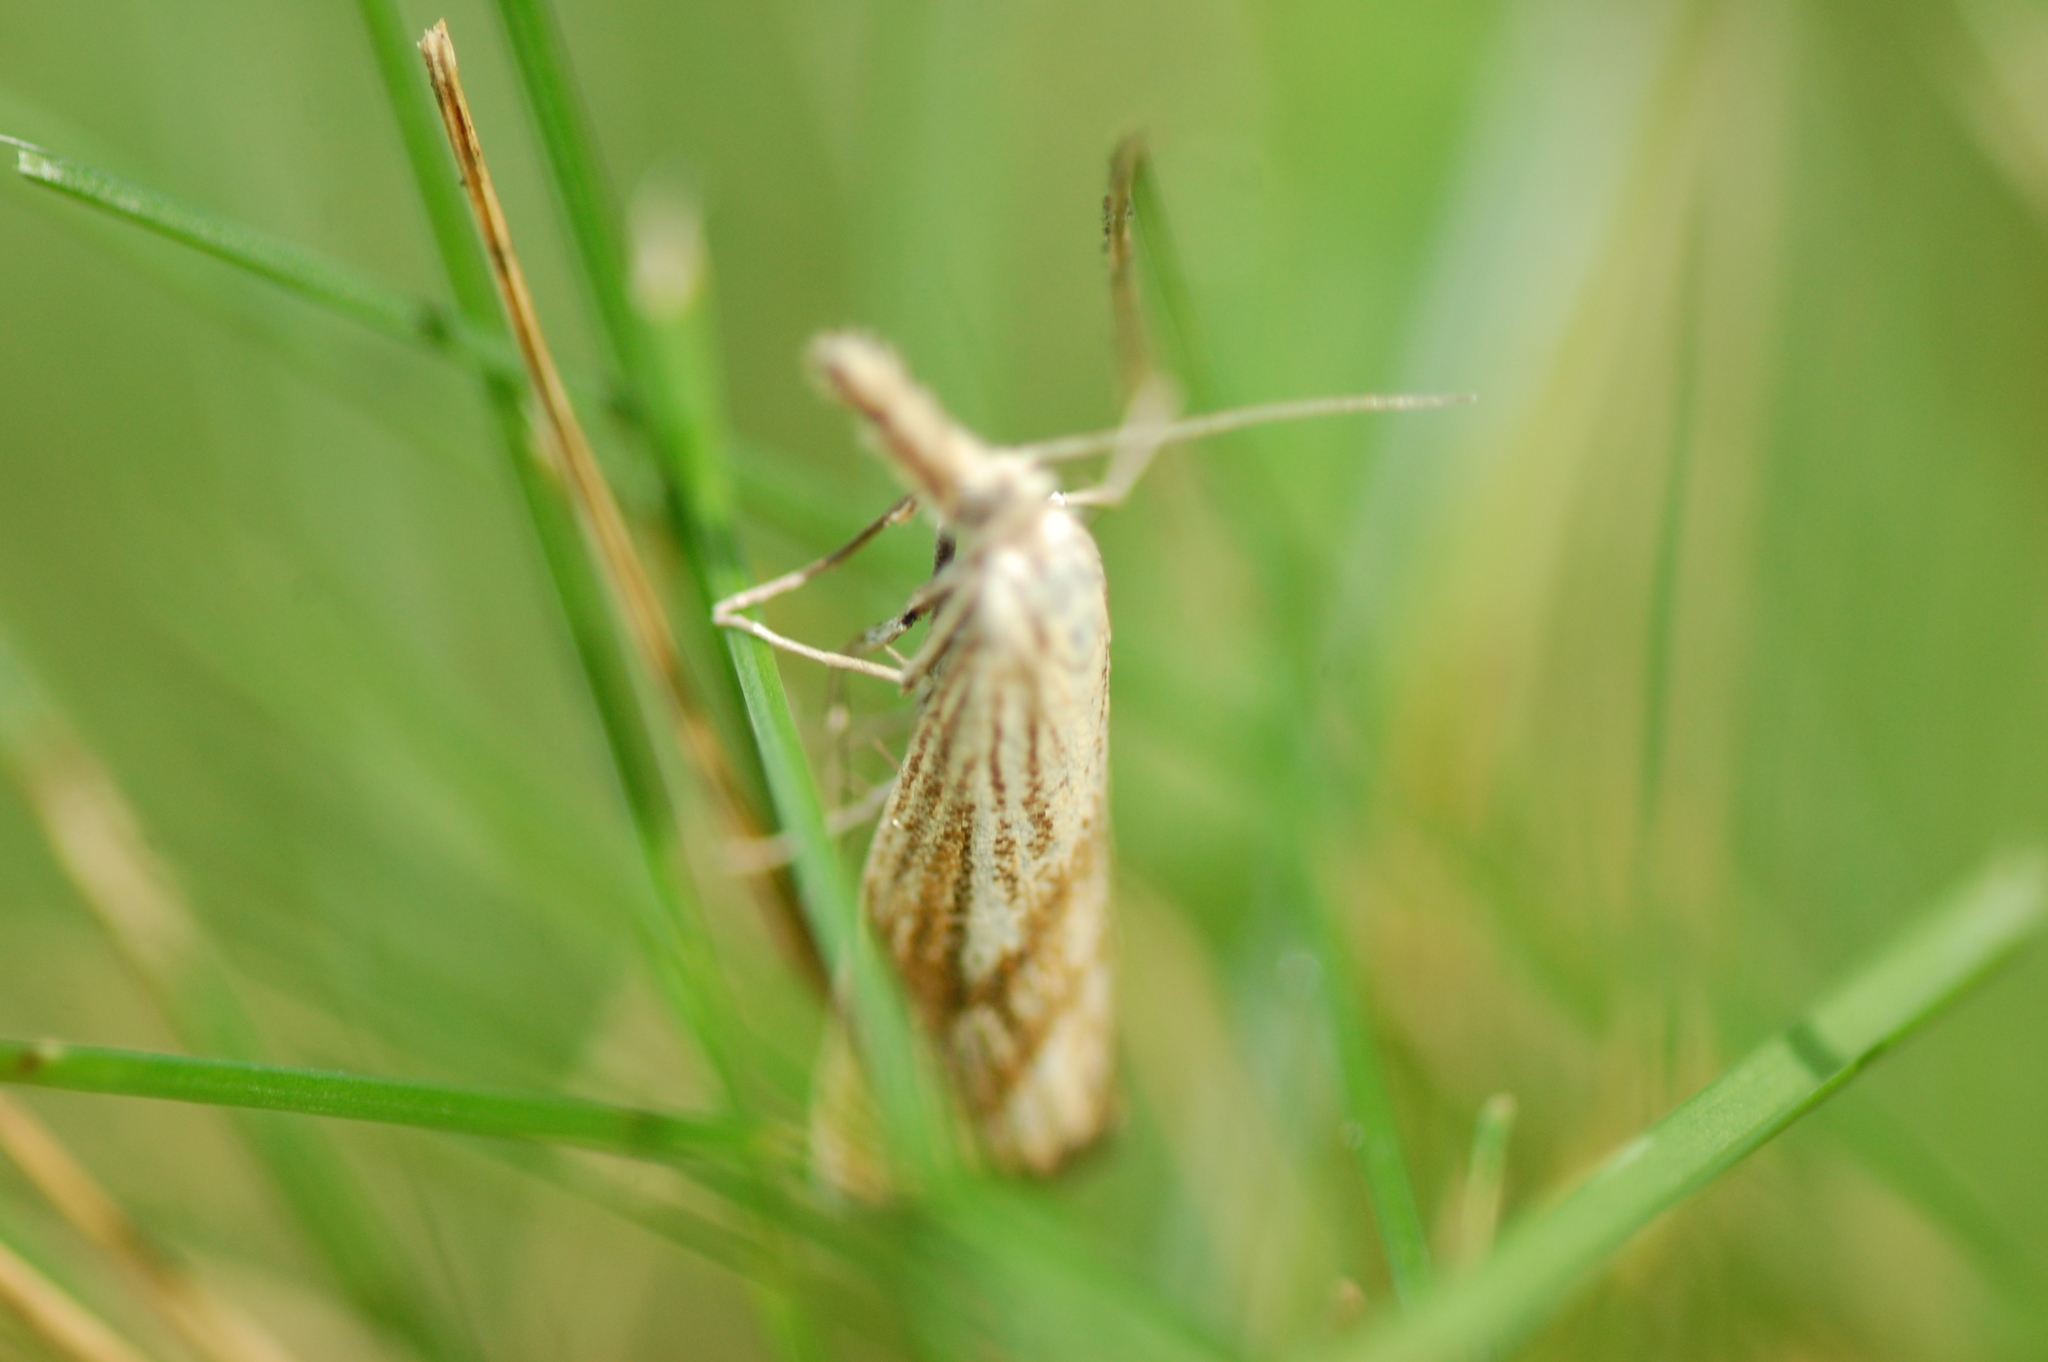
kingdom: Animalia
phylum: Arthropoda
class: Insecta
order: Lepidoptera
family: Crambidae
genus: Agriphila
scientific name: Agriphila ruricolellus
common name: Lesser vagabond sod webworm
